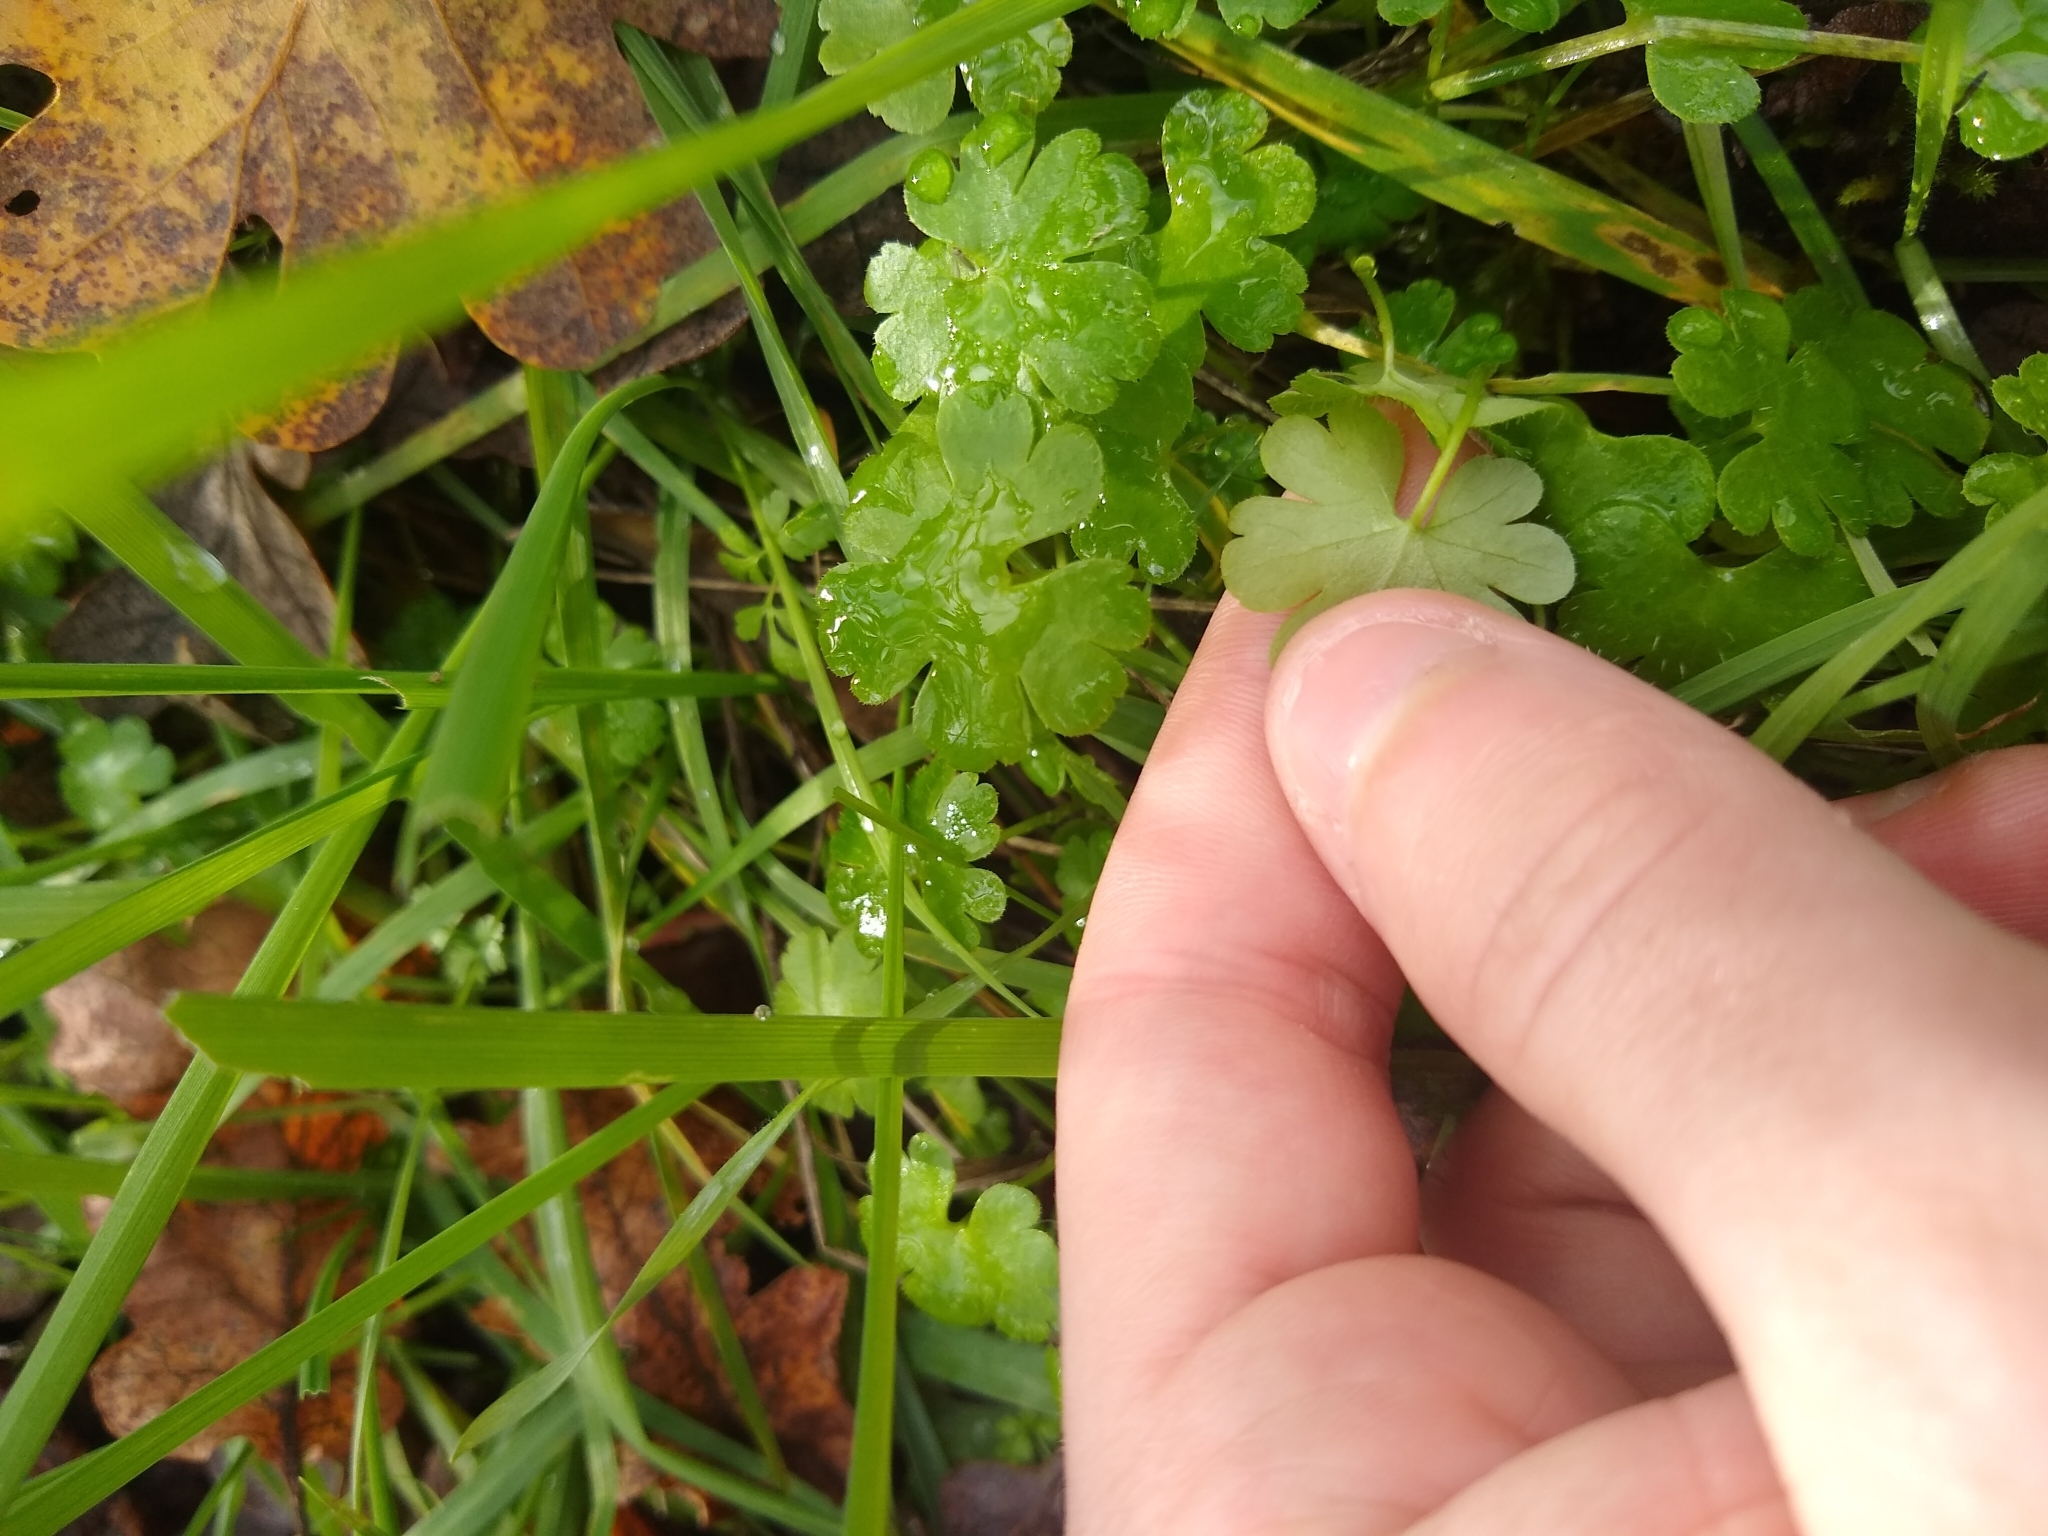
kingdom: Plantae
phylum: Tracheophyta
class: Magnoliopsida
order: Geraniales
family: Geraniaceae
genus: Geranium
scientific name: Geranium lucidum
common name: Shining crane's-bill
